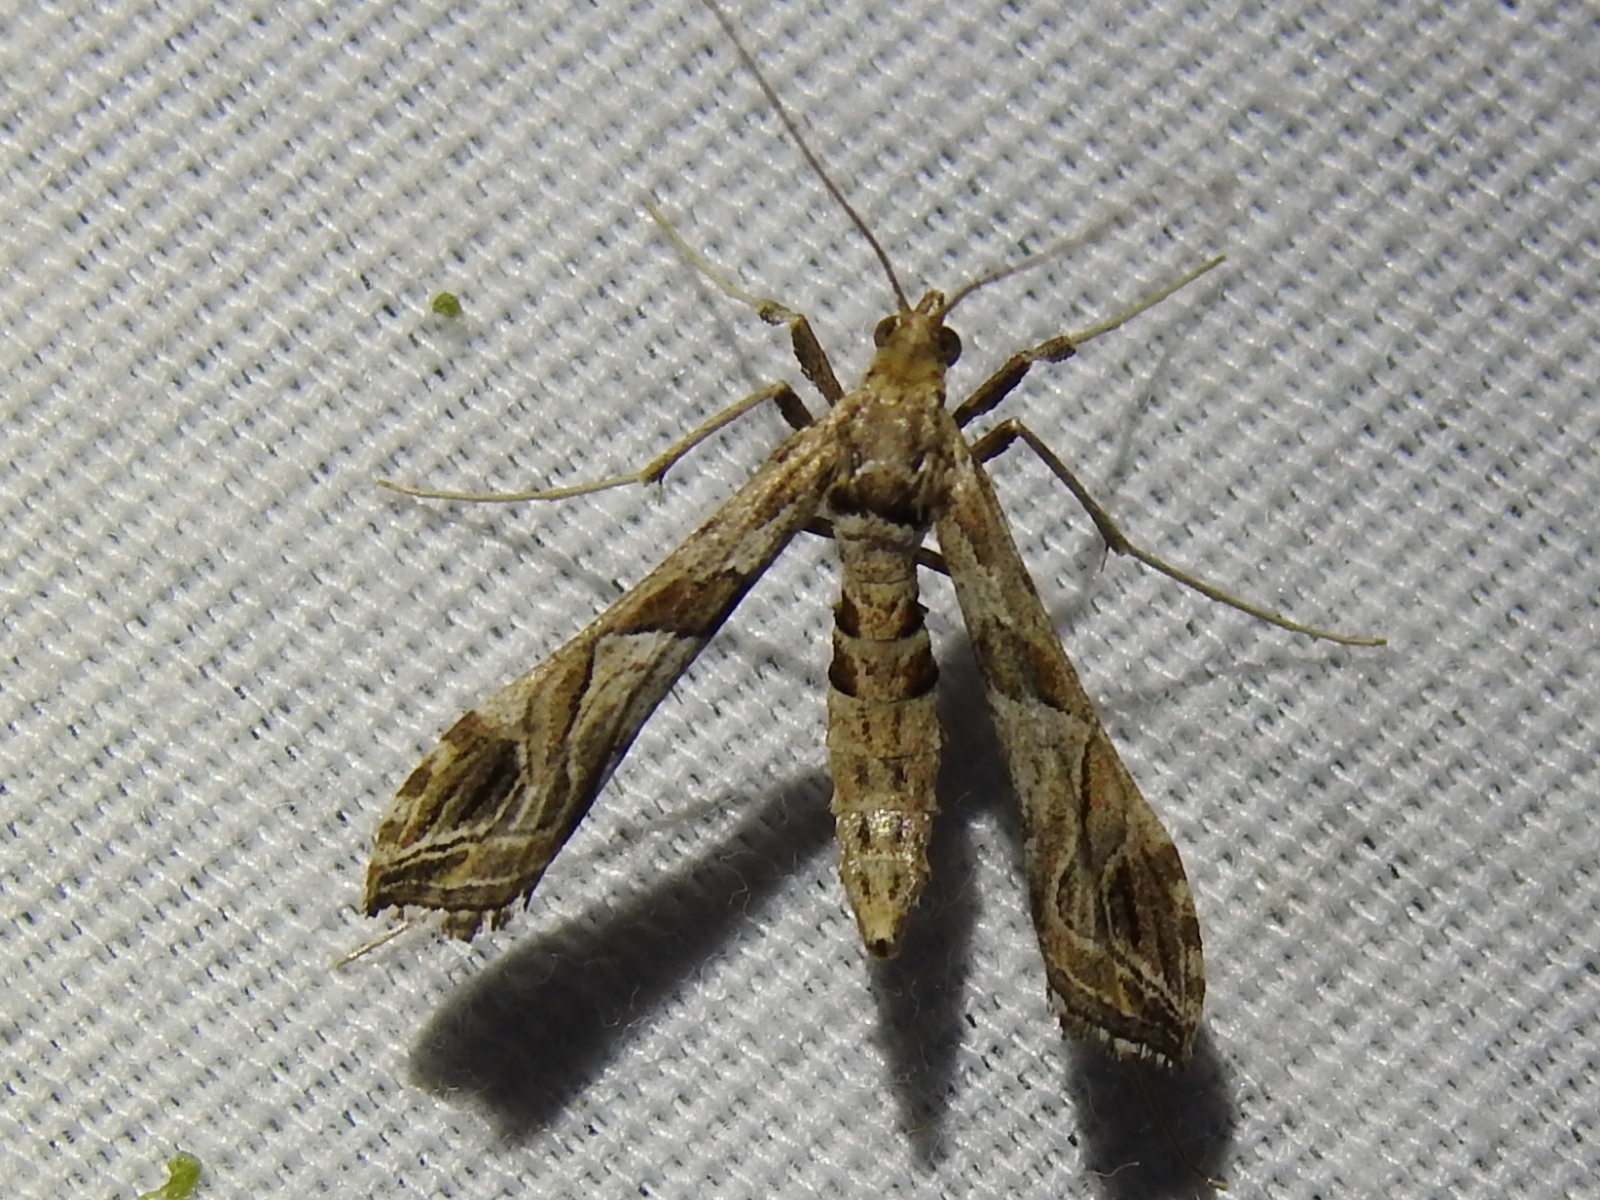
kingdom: Animalia
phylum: Arthropoda
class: Insecta
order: Lepidoptera
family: Crambidae
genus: Lineodes
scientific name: Lineodes interrupta
